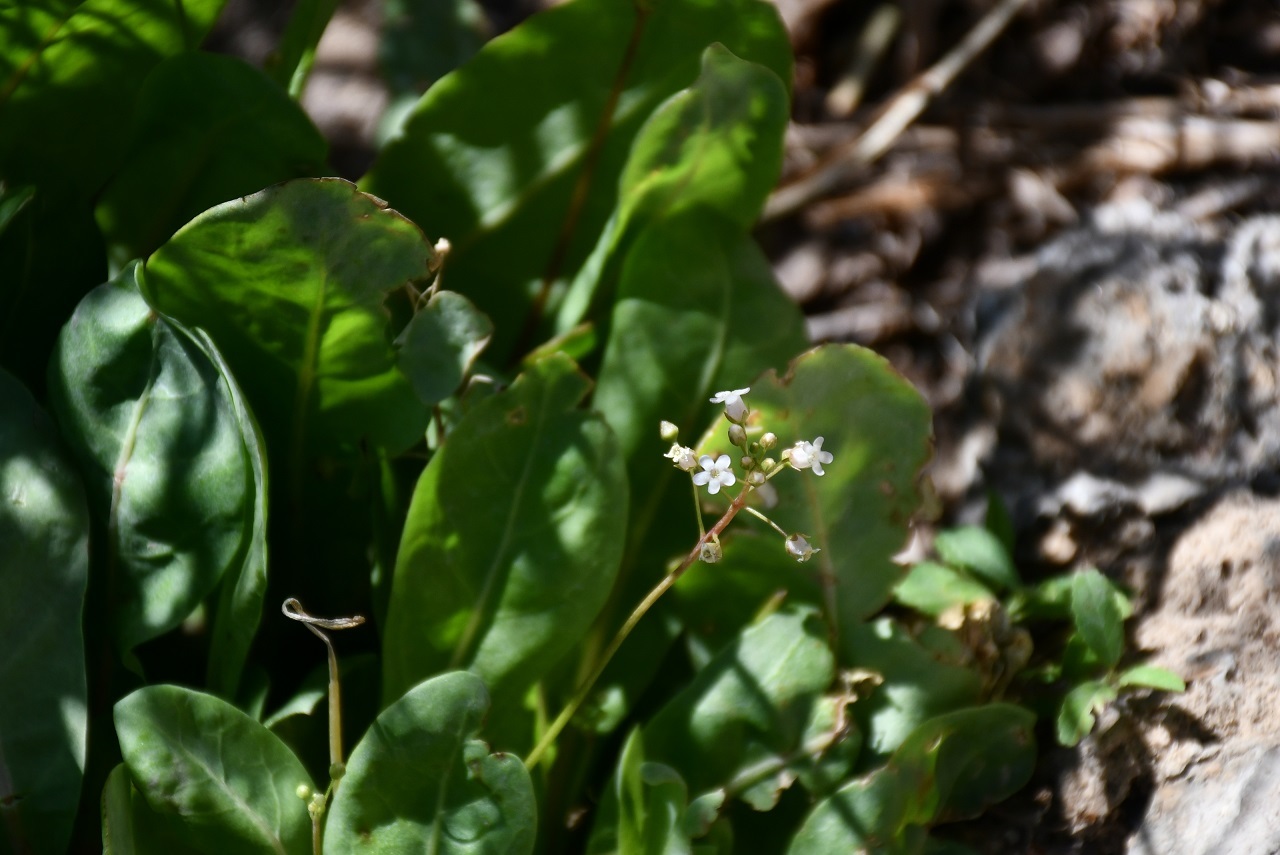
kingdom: Plantae
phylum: Tracheophyta
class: Magnoliopsida
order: Ericales
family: Primulaceae
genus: Samolus
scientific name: Samolus ebracteatus
